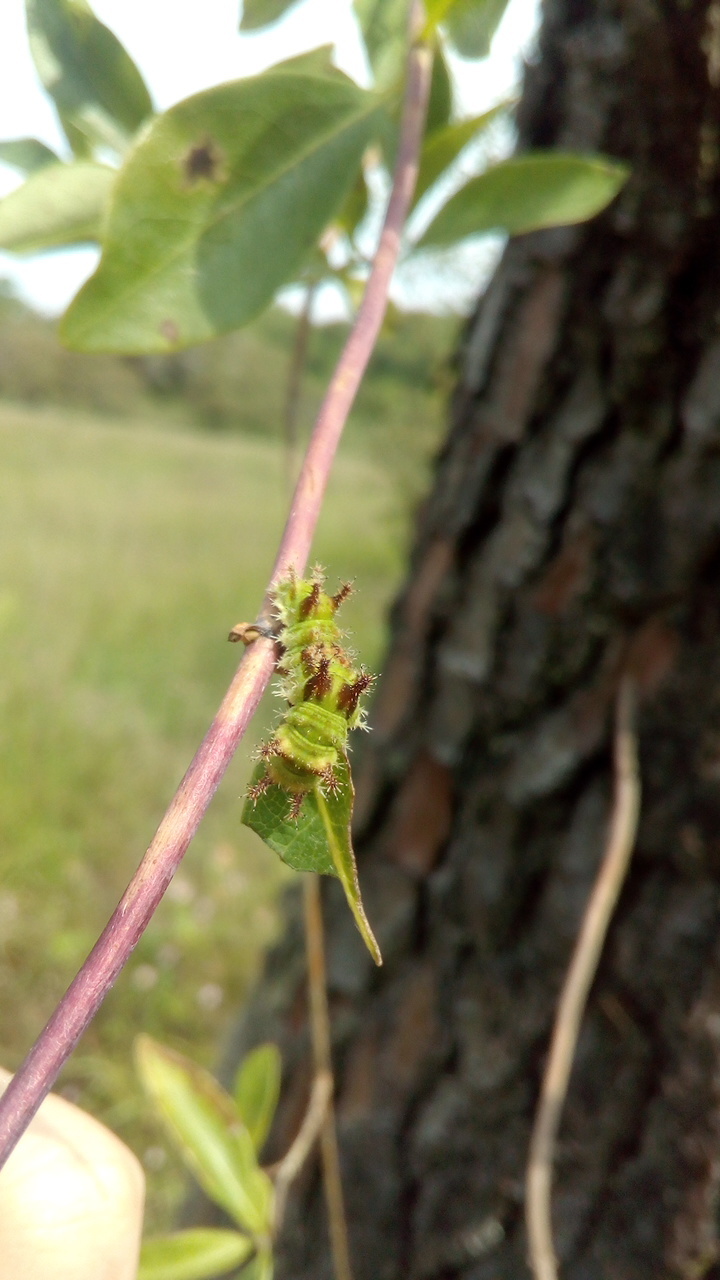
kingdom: Animalia
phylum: Arthropoda
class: Insecta
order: Lepidoptera
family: Nymphalidae
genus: Limenitis
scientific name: Limenitis reducta
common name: Southern white admiral
